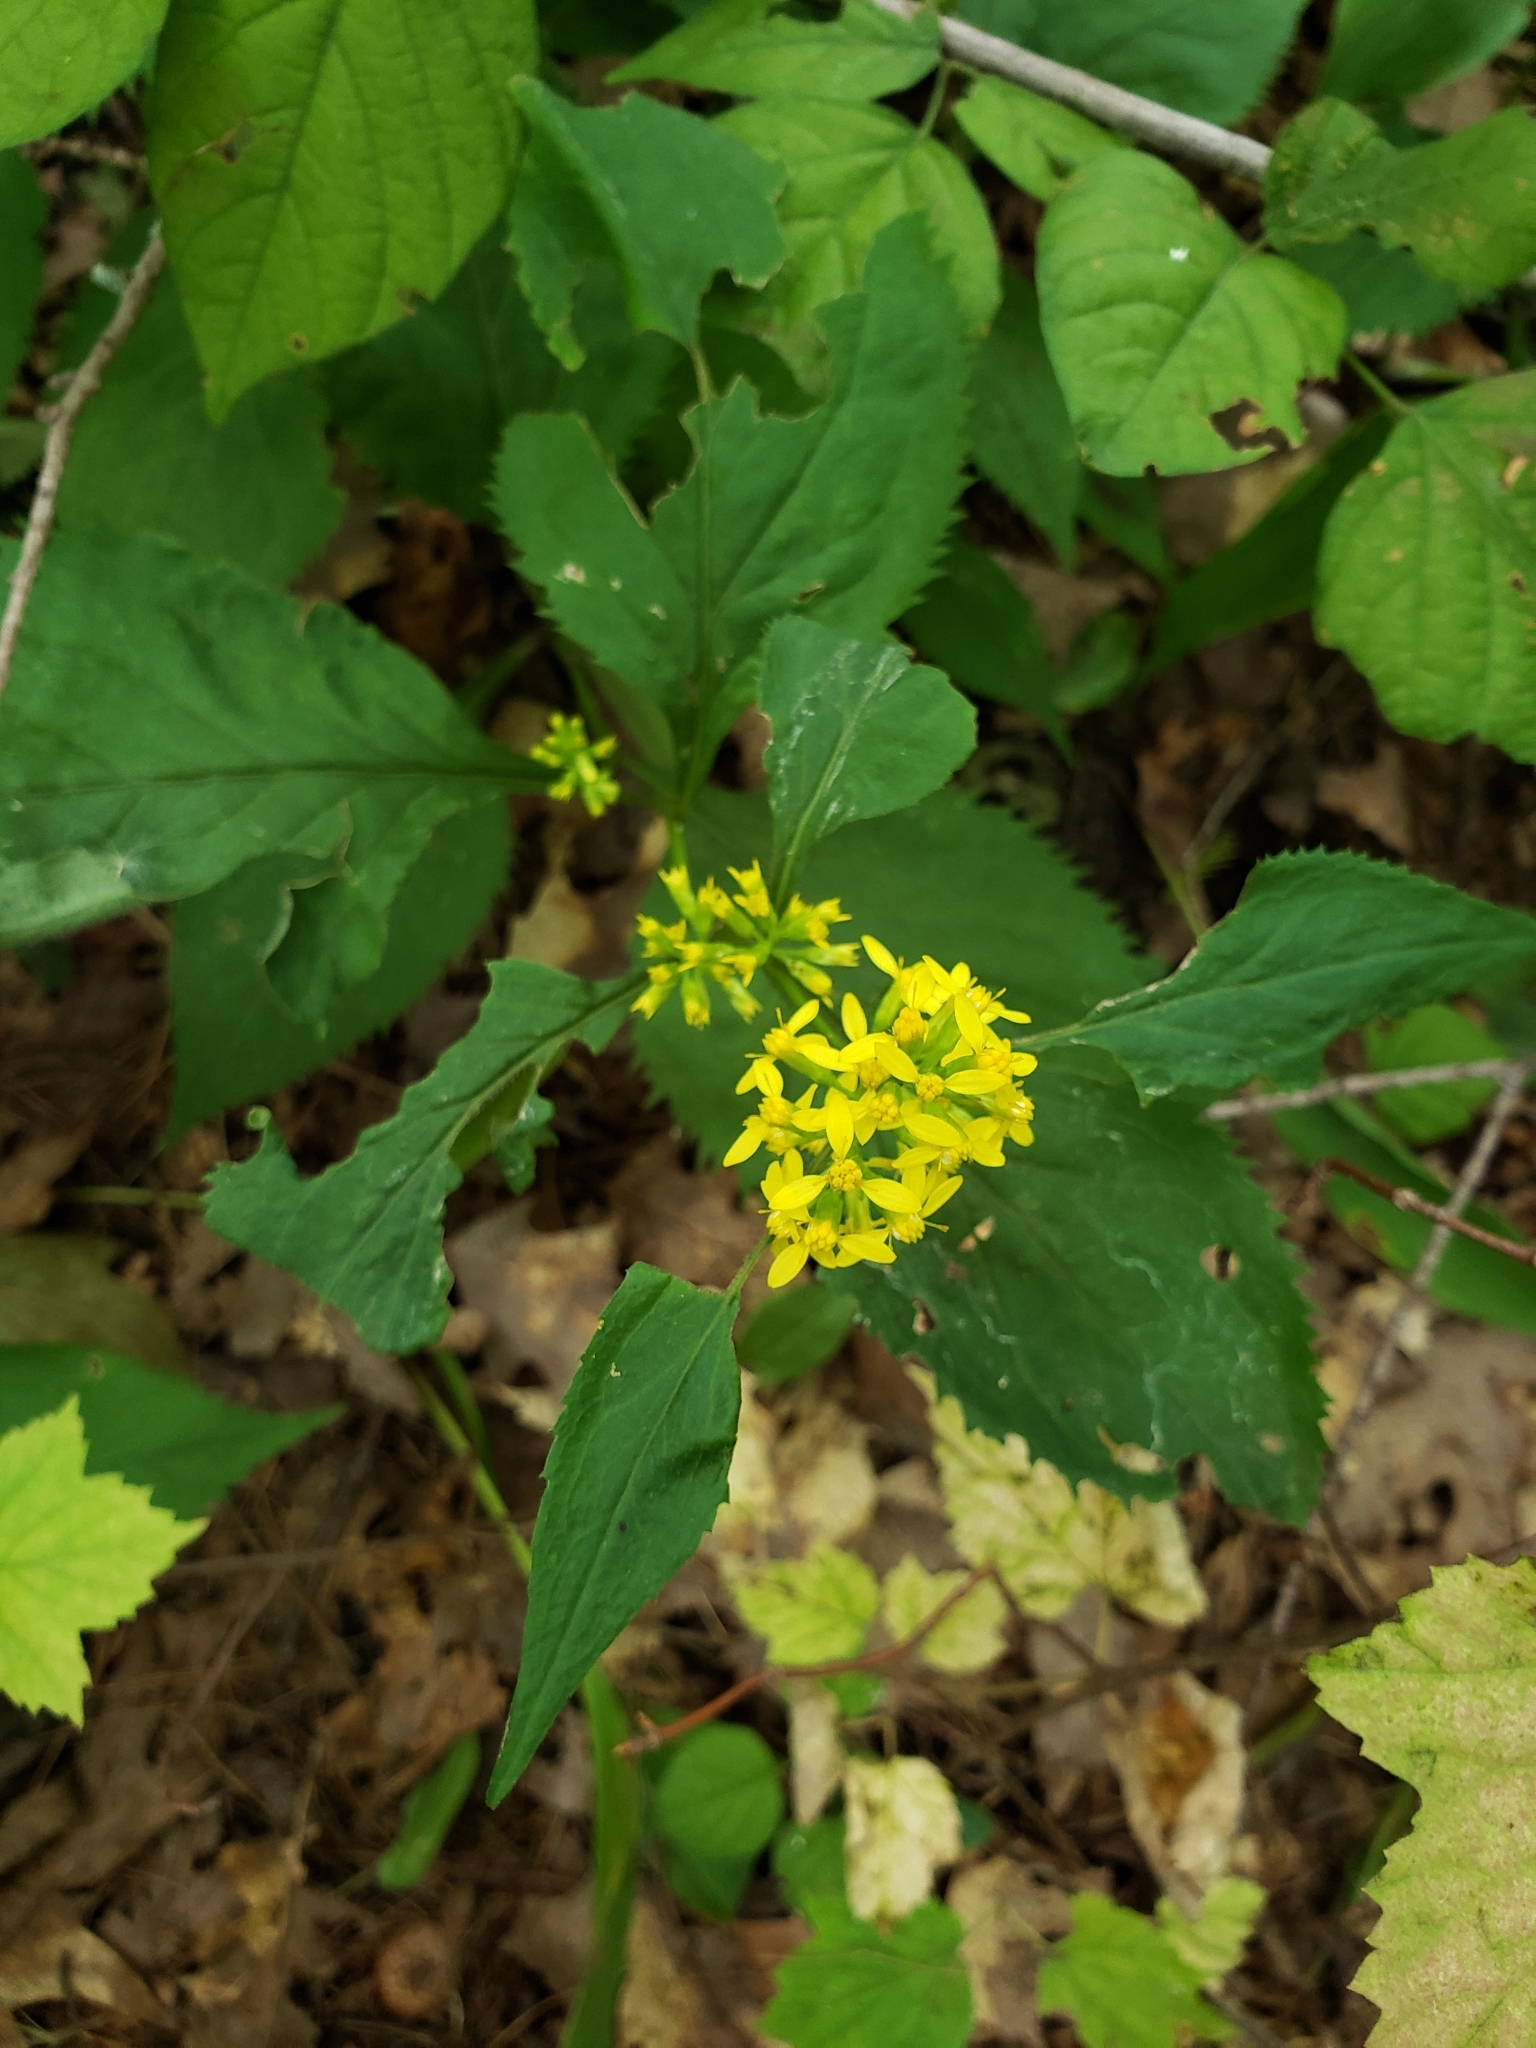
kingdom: Plantae
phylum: Tracheophyta
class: Magnoliopsida
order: Asterales
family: Asteraceae
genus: Solidago
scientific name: Solidago flexicaulis
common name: Zig-zag goldenrod
